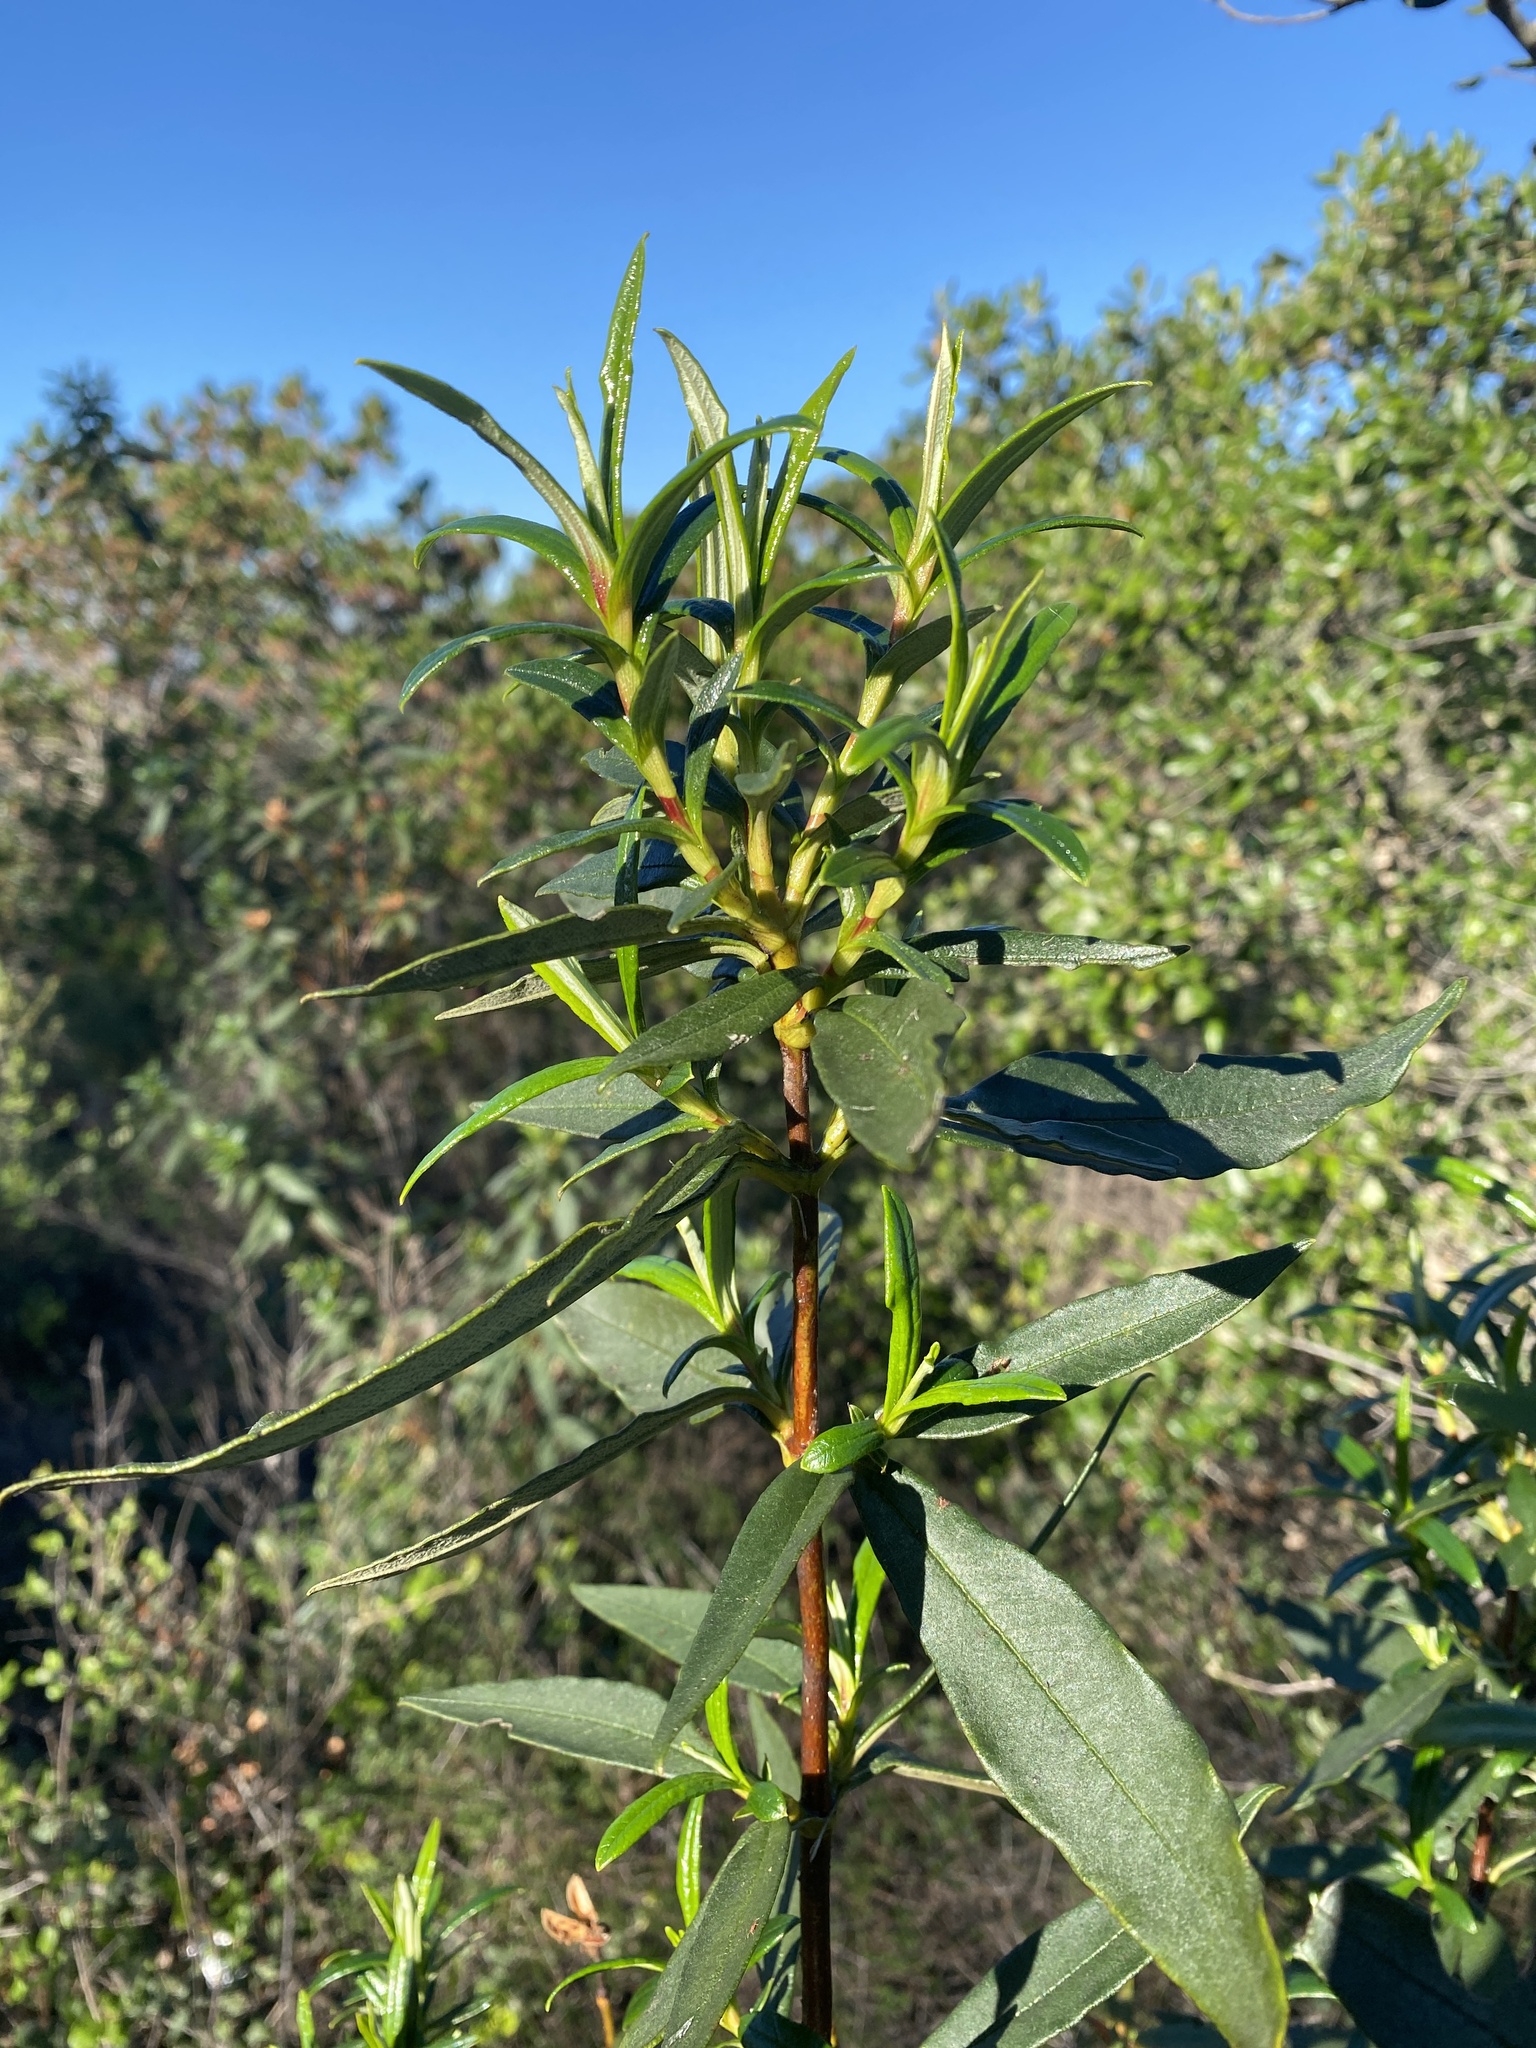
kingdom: Plantae
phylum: Tracheophyta
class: Magnoliopsida
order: Malvales
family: Cistaceae
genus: Cistus
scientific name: Cistus ladanifer
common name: Common gum cistus
